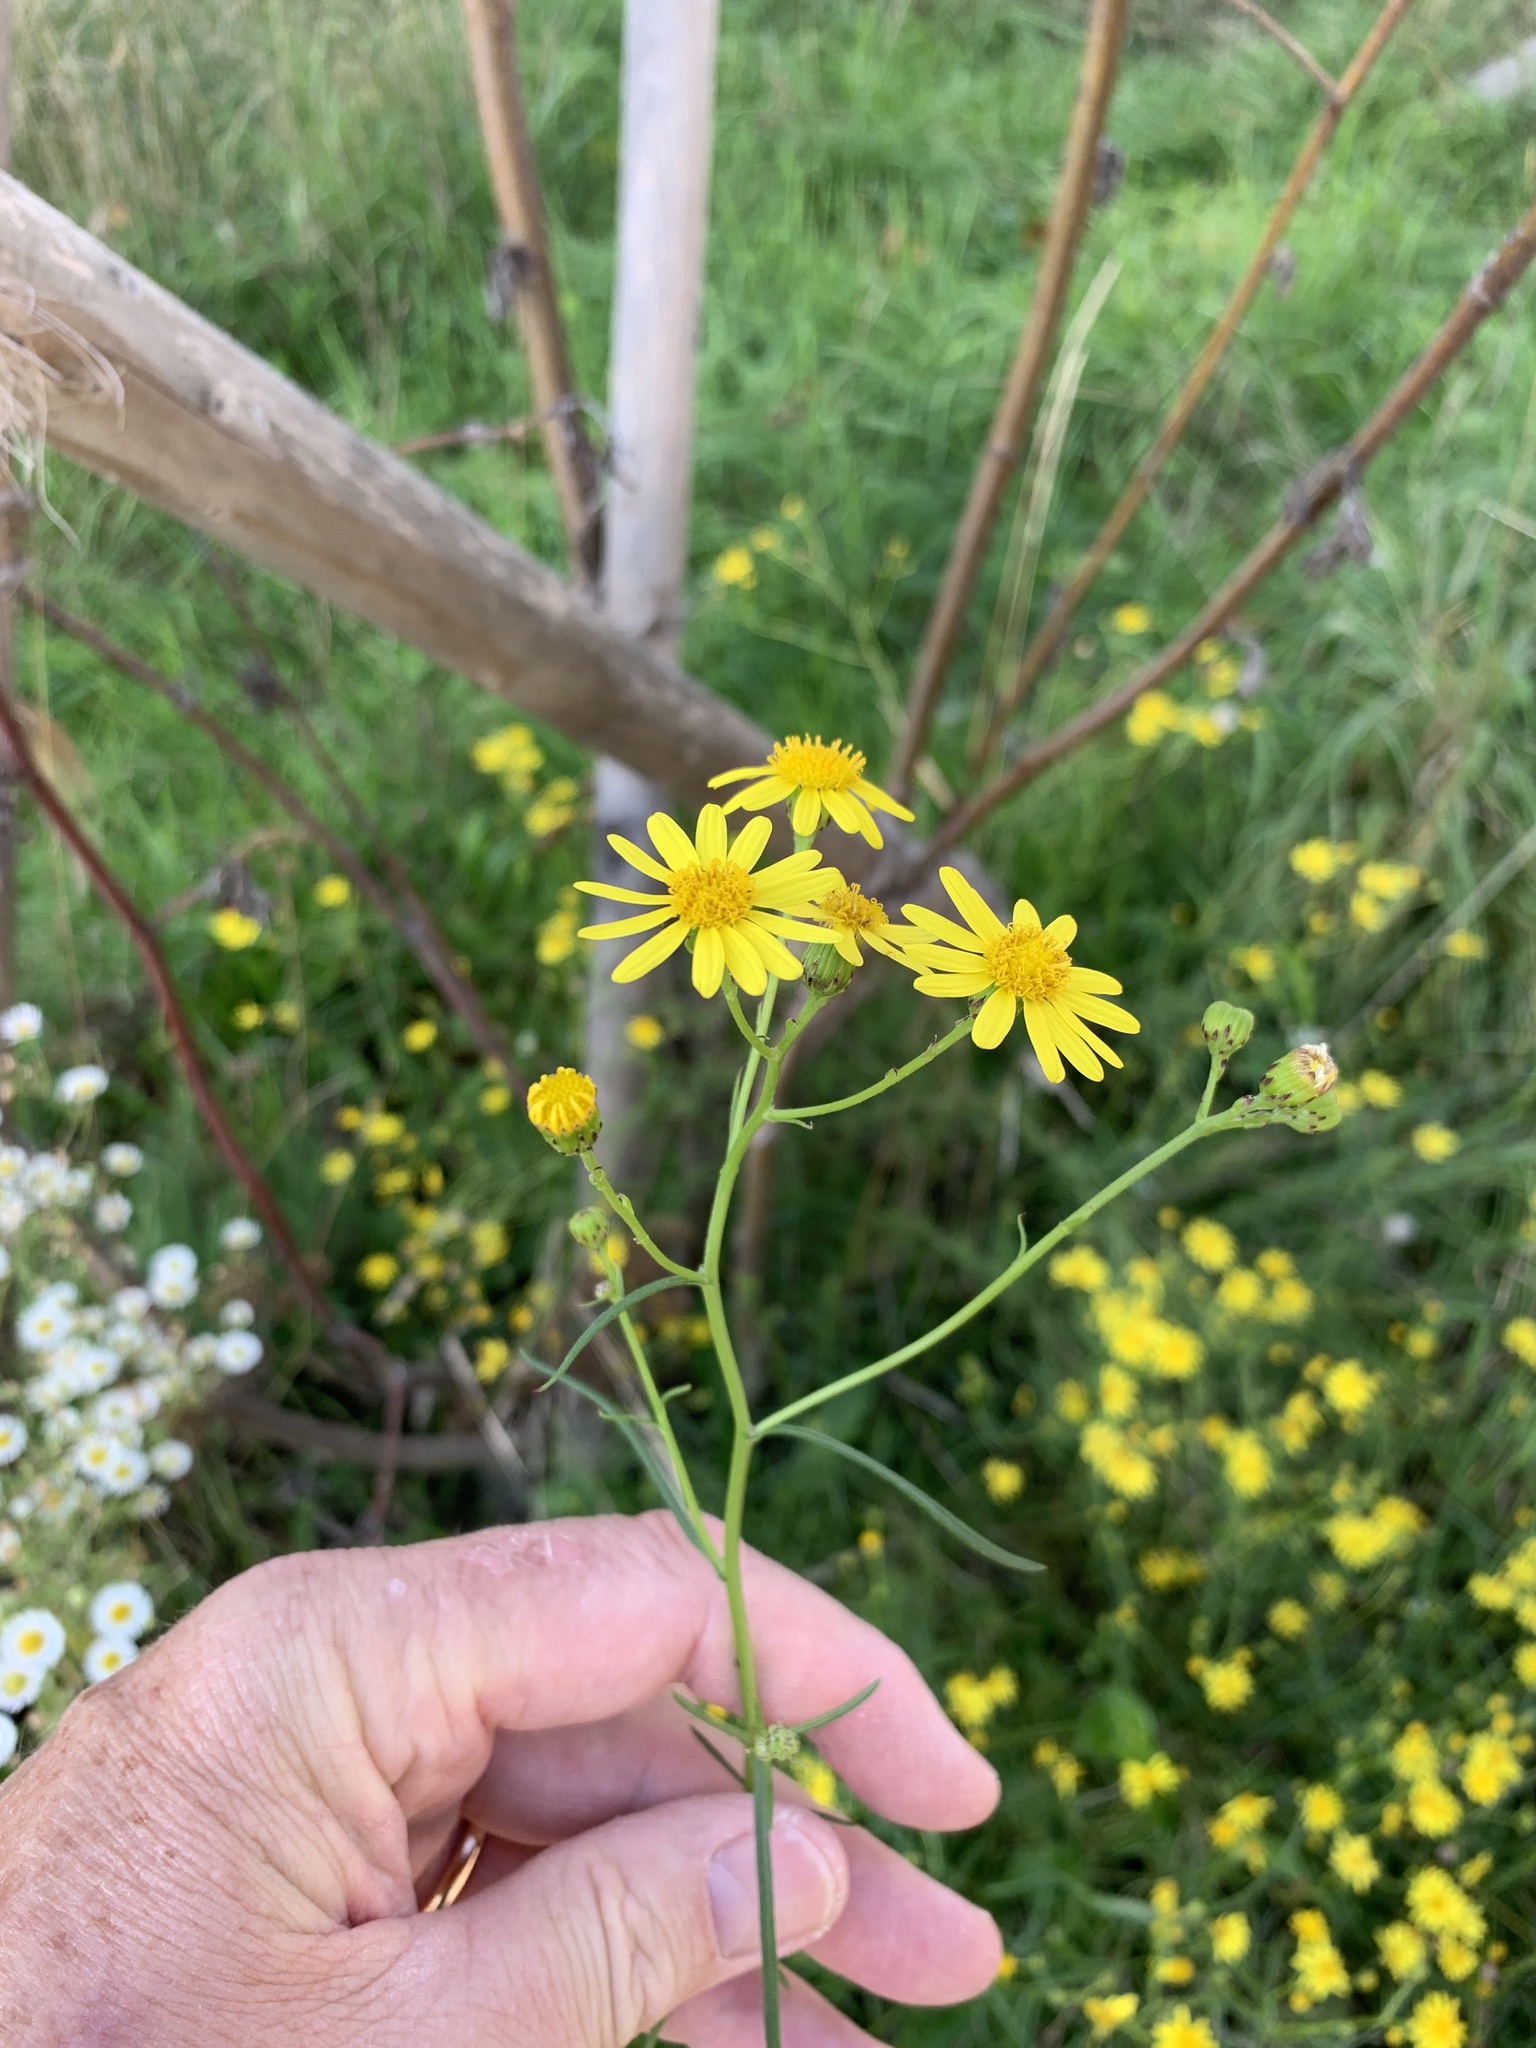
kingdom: Plantae
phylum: Tracheophyta
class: Magnoliopsida
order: Asterales
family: Asteraceae
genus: Senecio
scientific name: Senecio inaequidens
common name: Narrow-leaved ragwort
